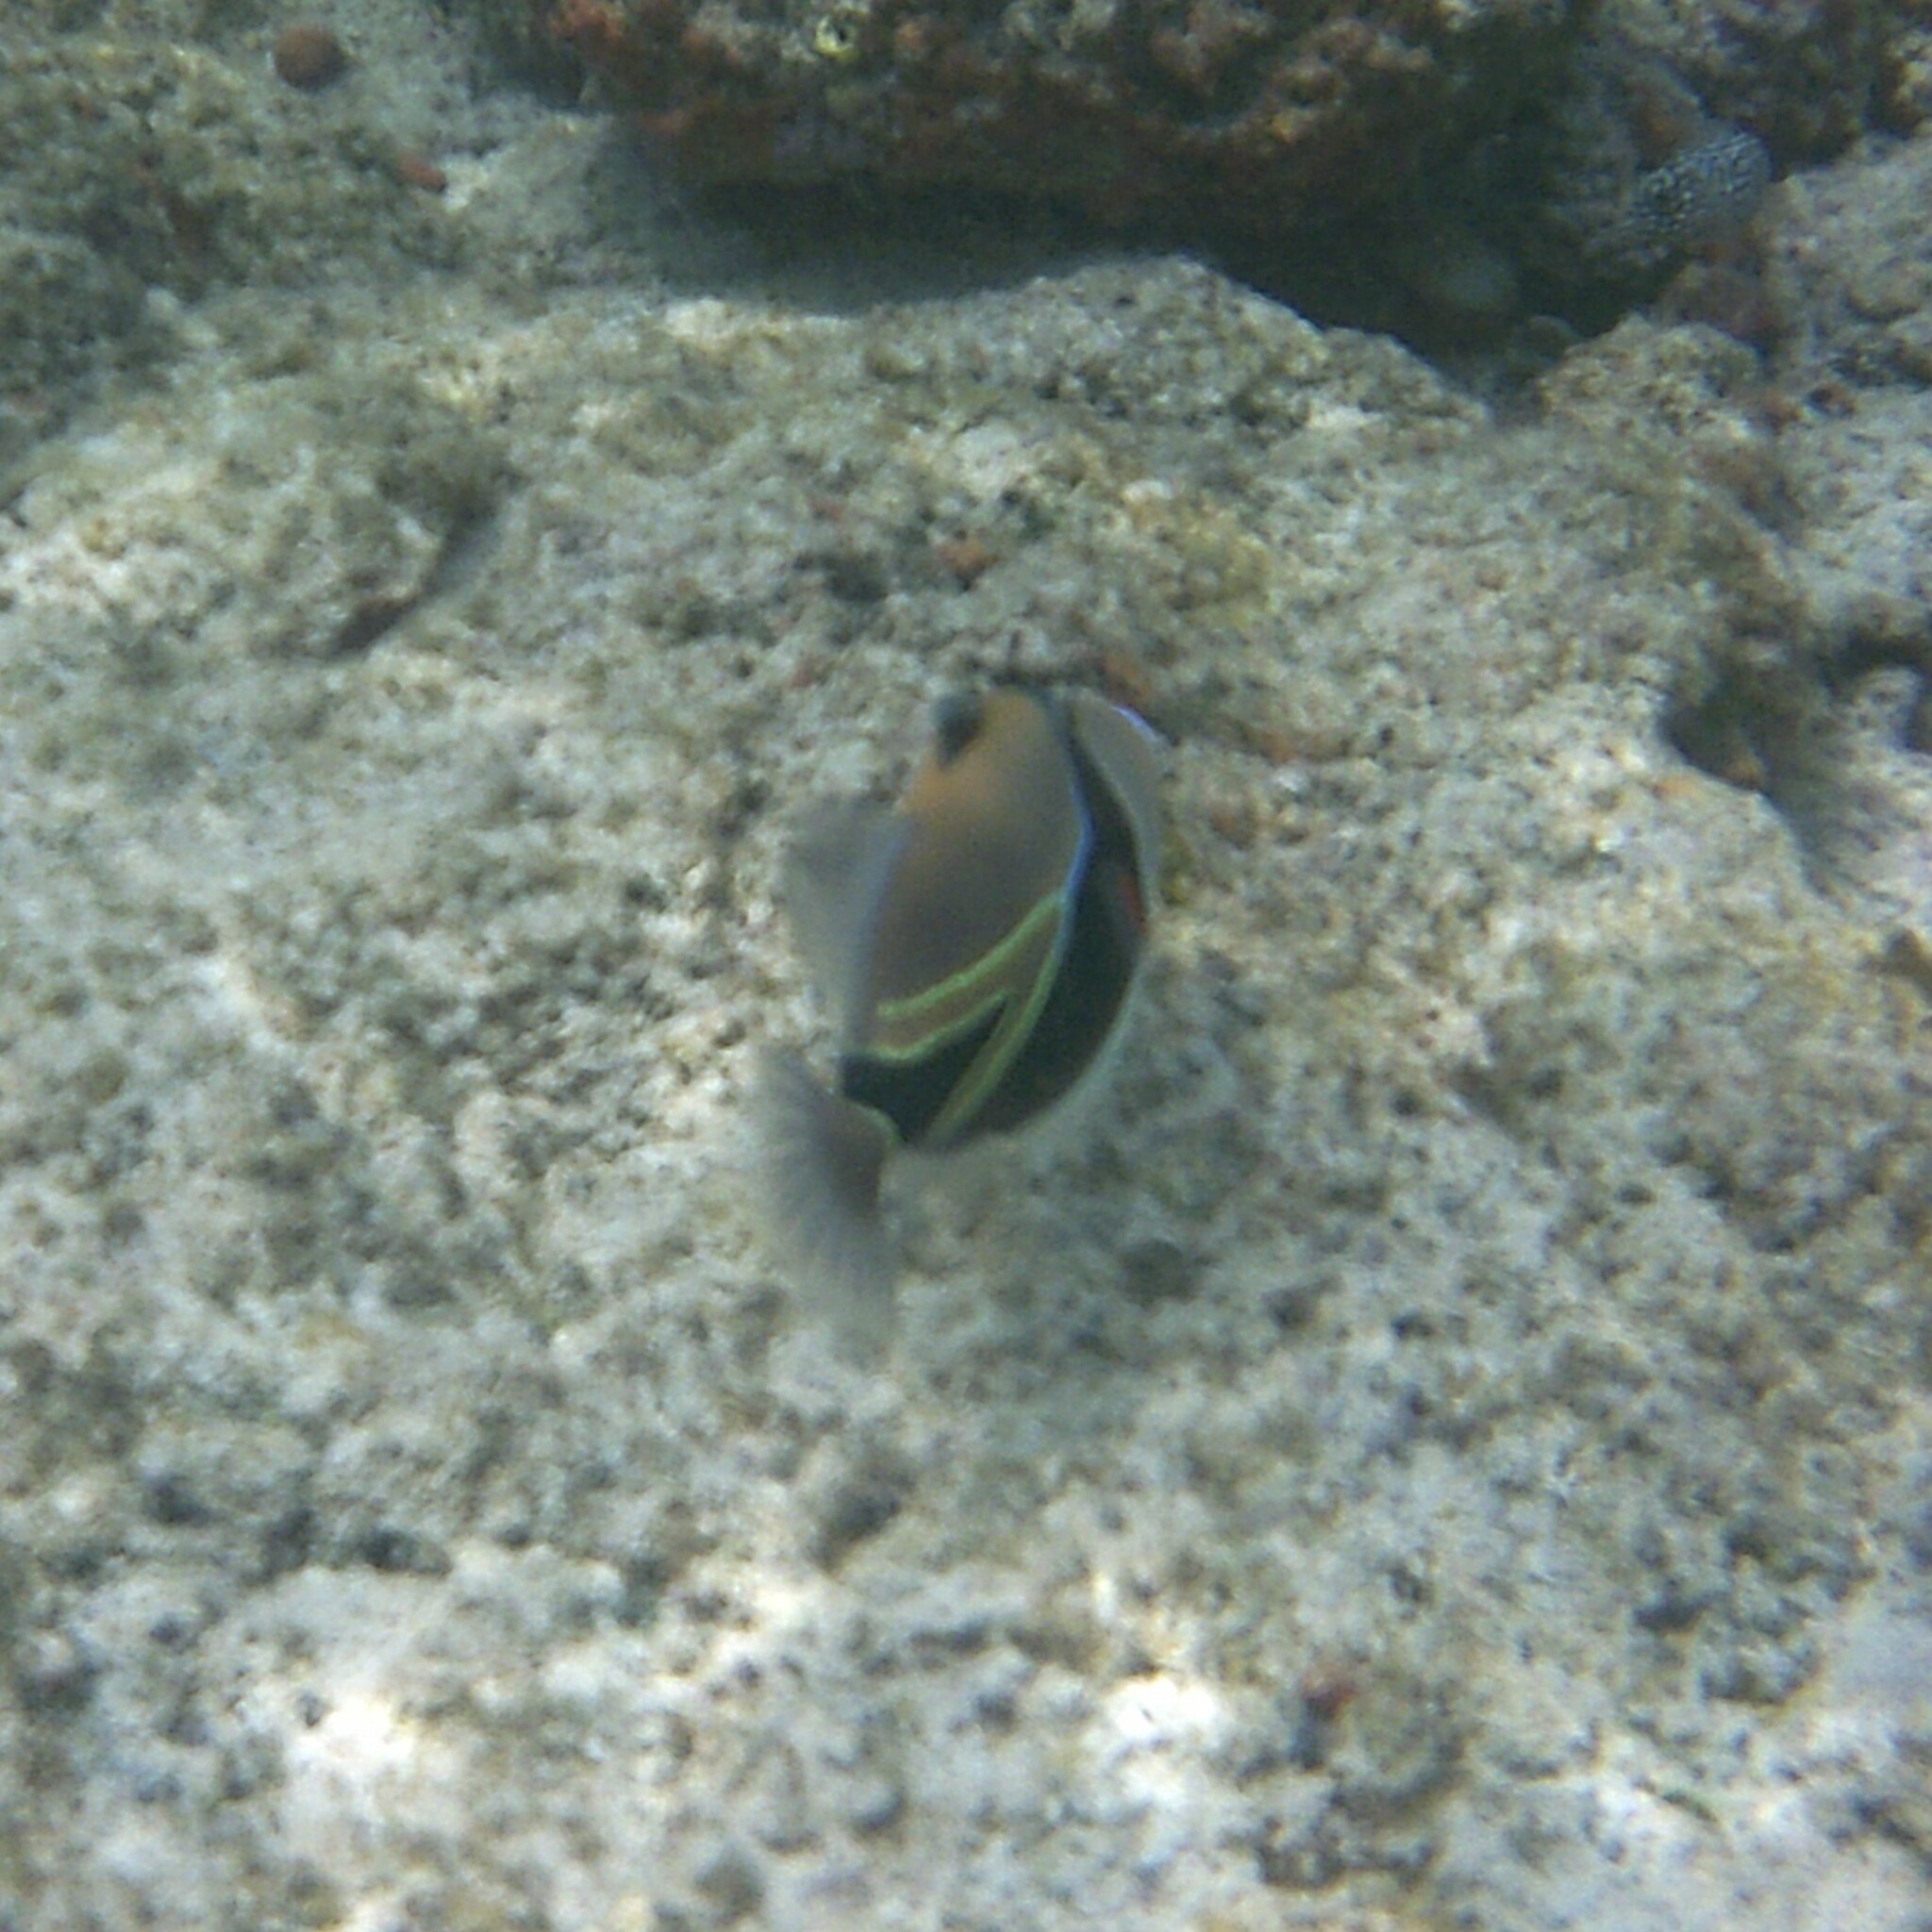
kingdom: Animalia
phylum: Chordata
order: Tetraodontiformes
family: Balistidae
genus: Rhinecanthus
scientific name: Rhinecanthus rectangulus
